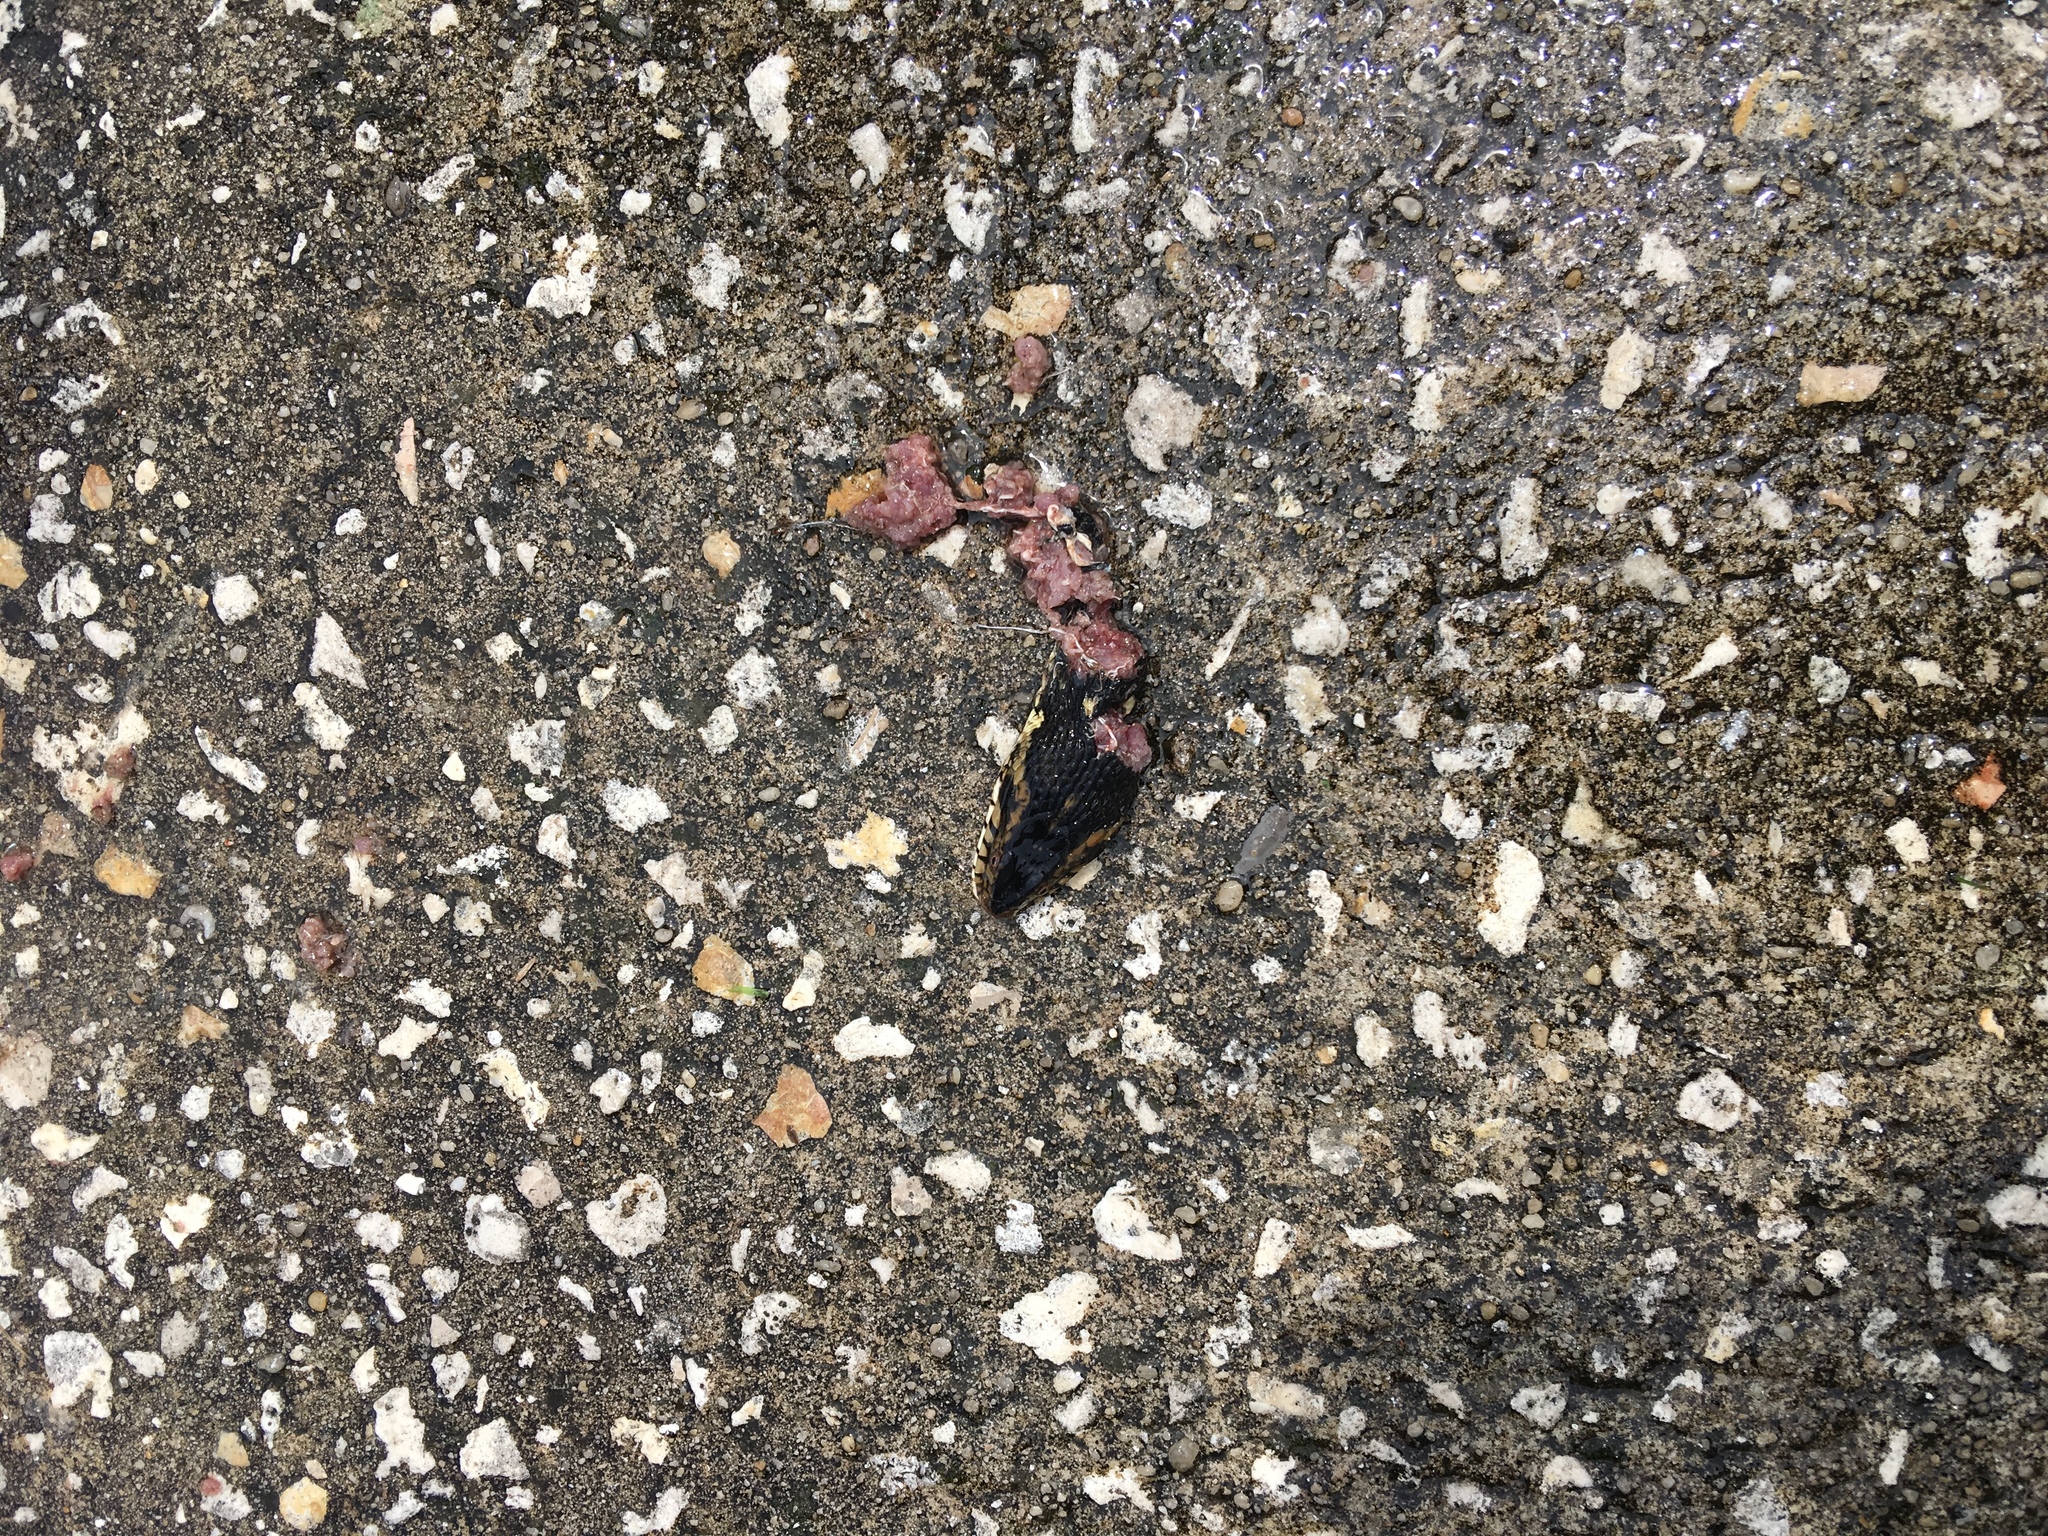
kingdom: Animalia
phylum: Chordata
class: Squamata
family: Colubridae
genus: Nerodia
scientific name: Nerodia fasciata
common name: Southern water snake
